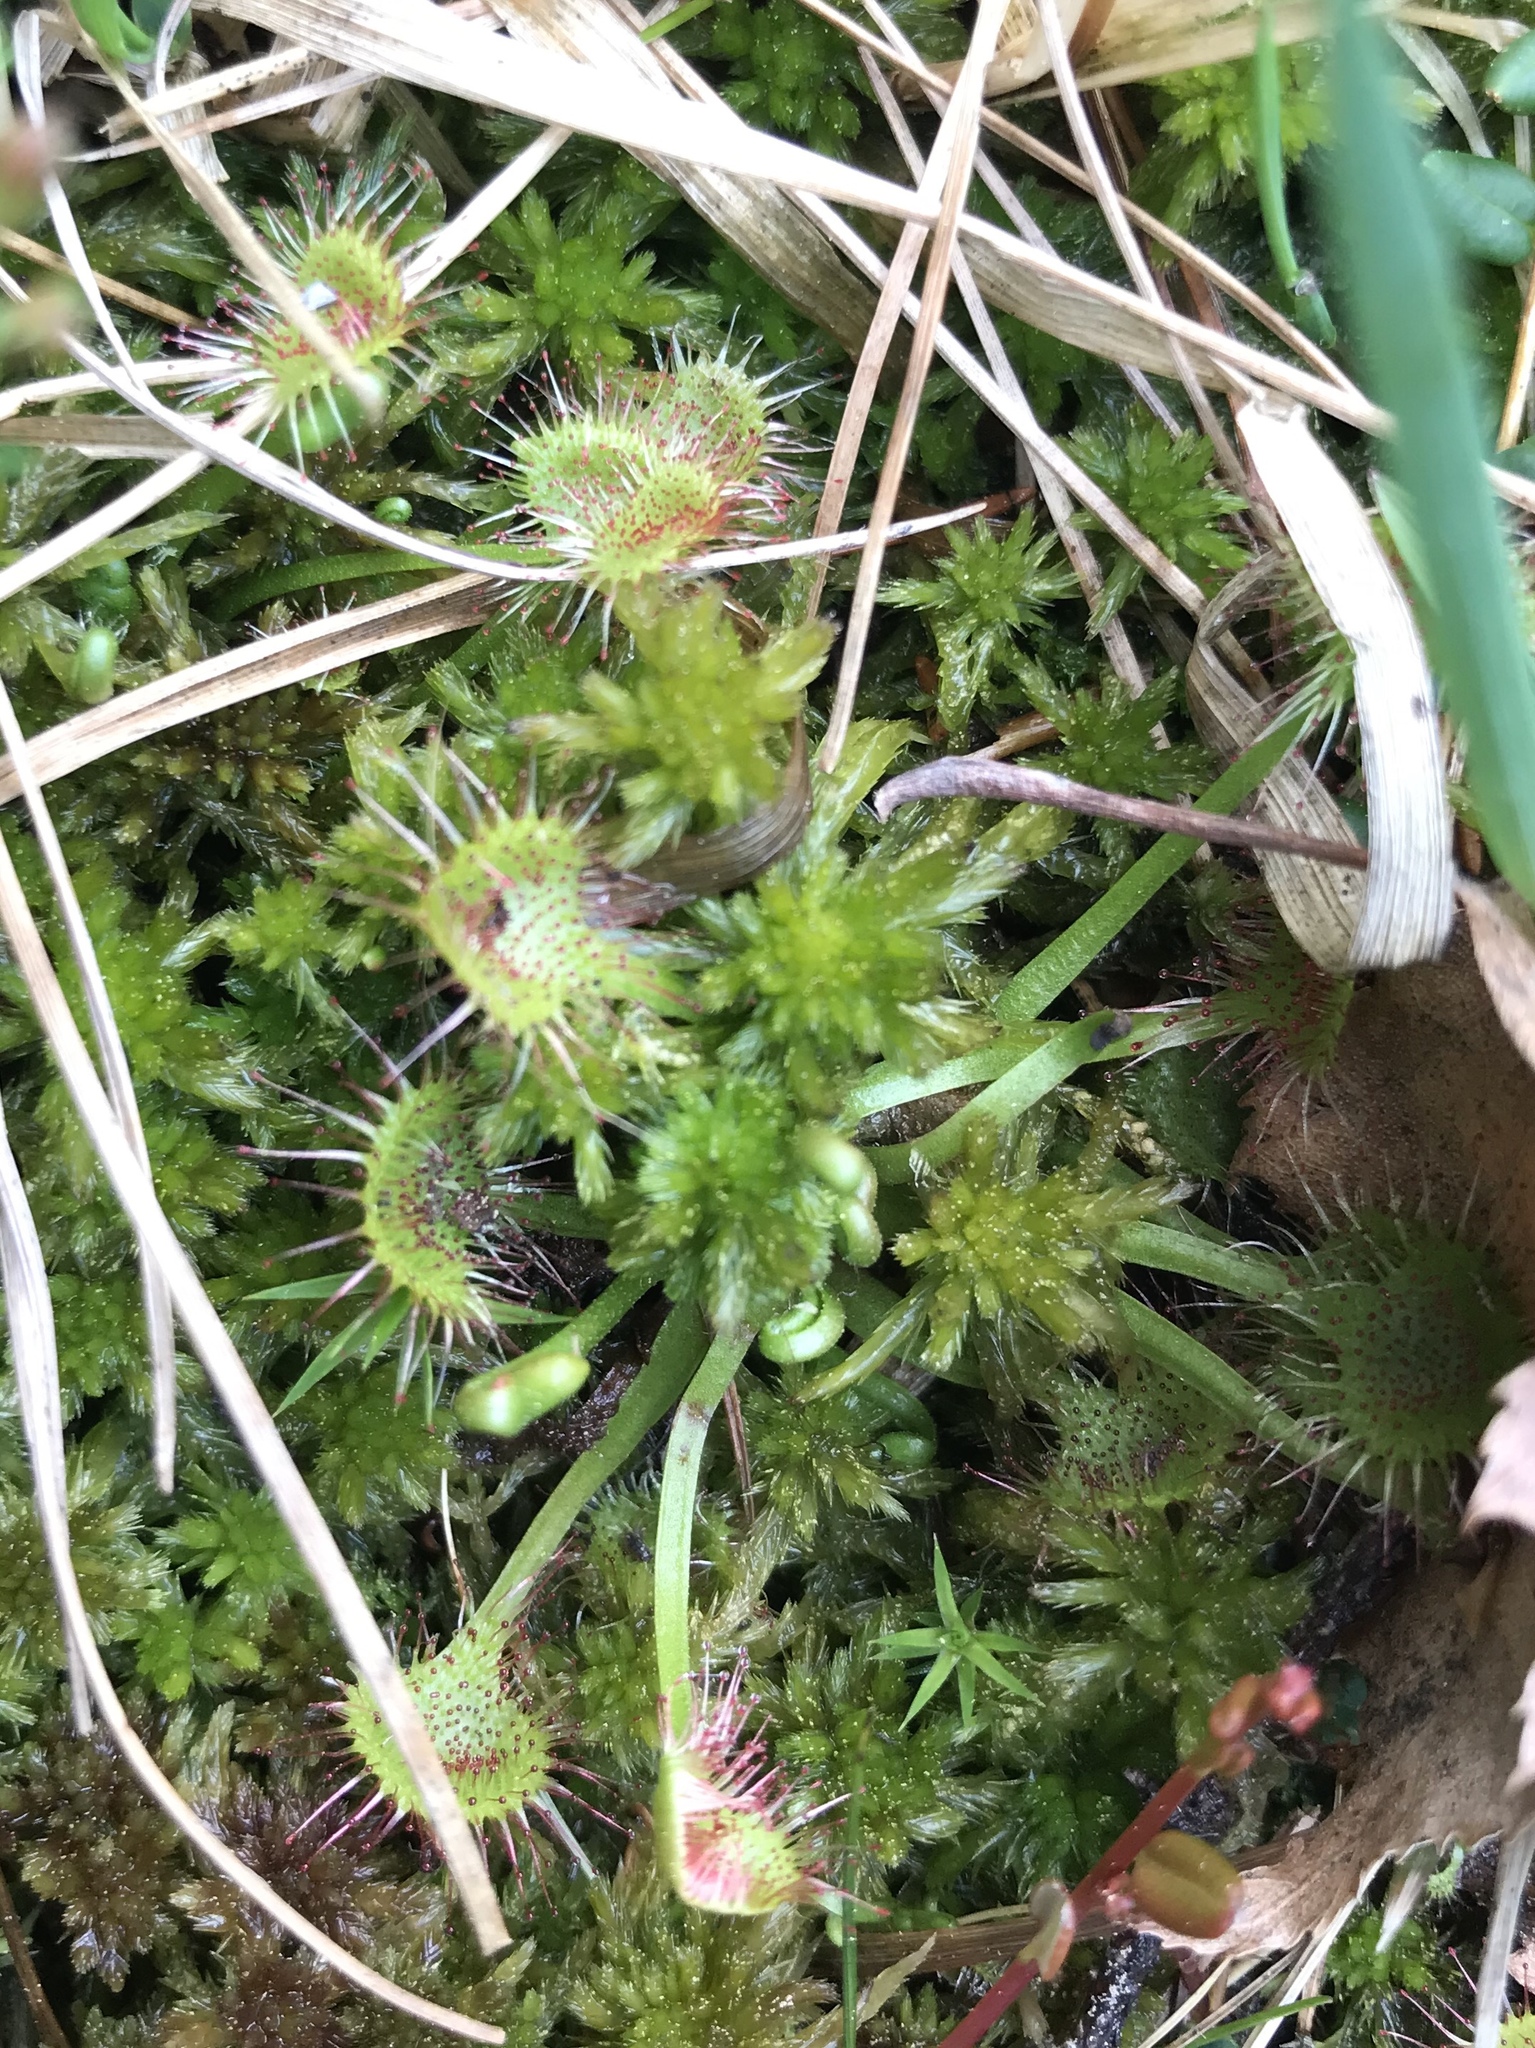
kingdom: Plantae
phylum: Tracheophyta
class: Magnoliopsida
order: Caryophyllales
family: Droseraceae
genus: Drosera
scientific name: Drosera rotundifolia
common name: Round-leaved sundew
